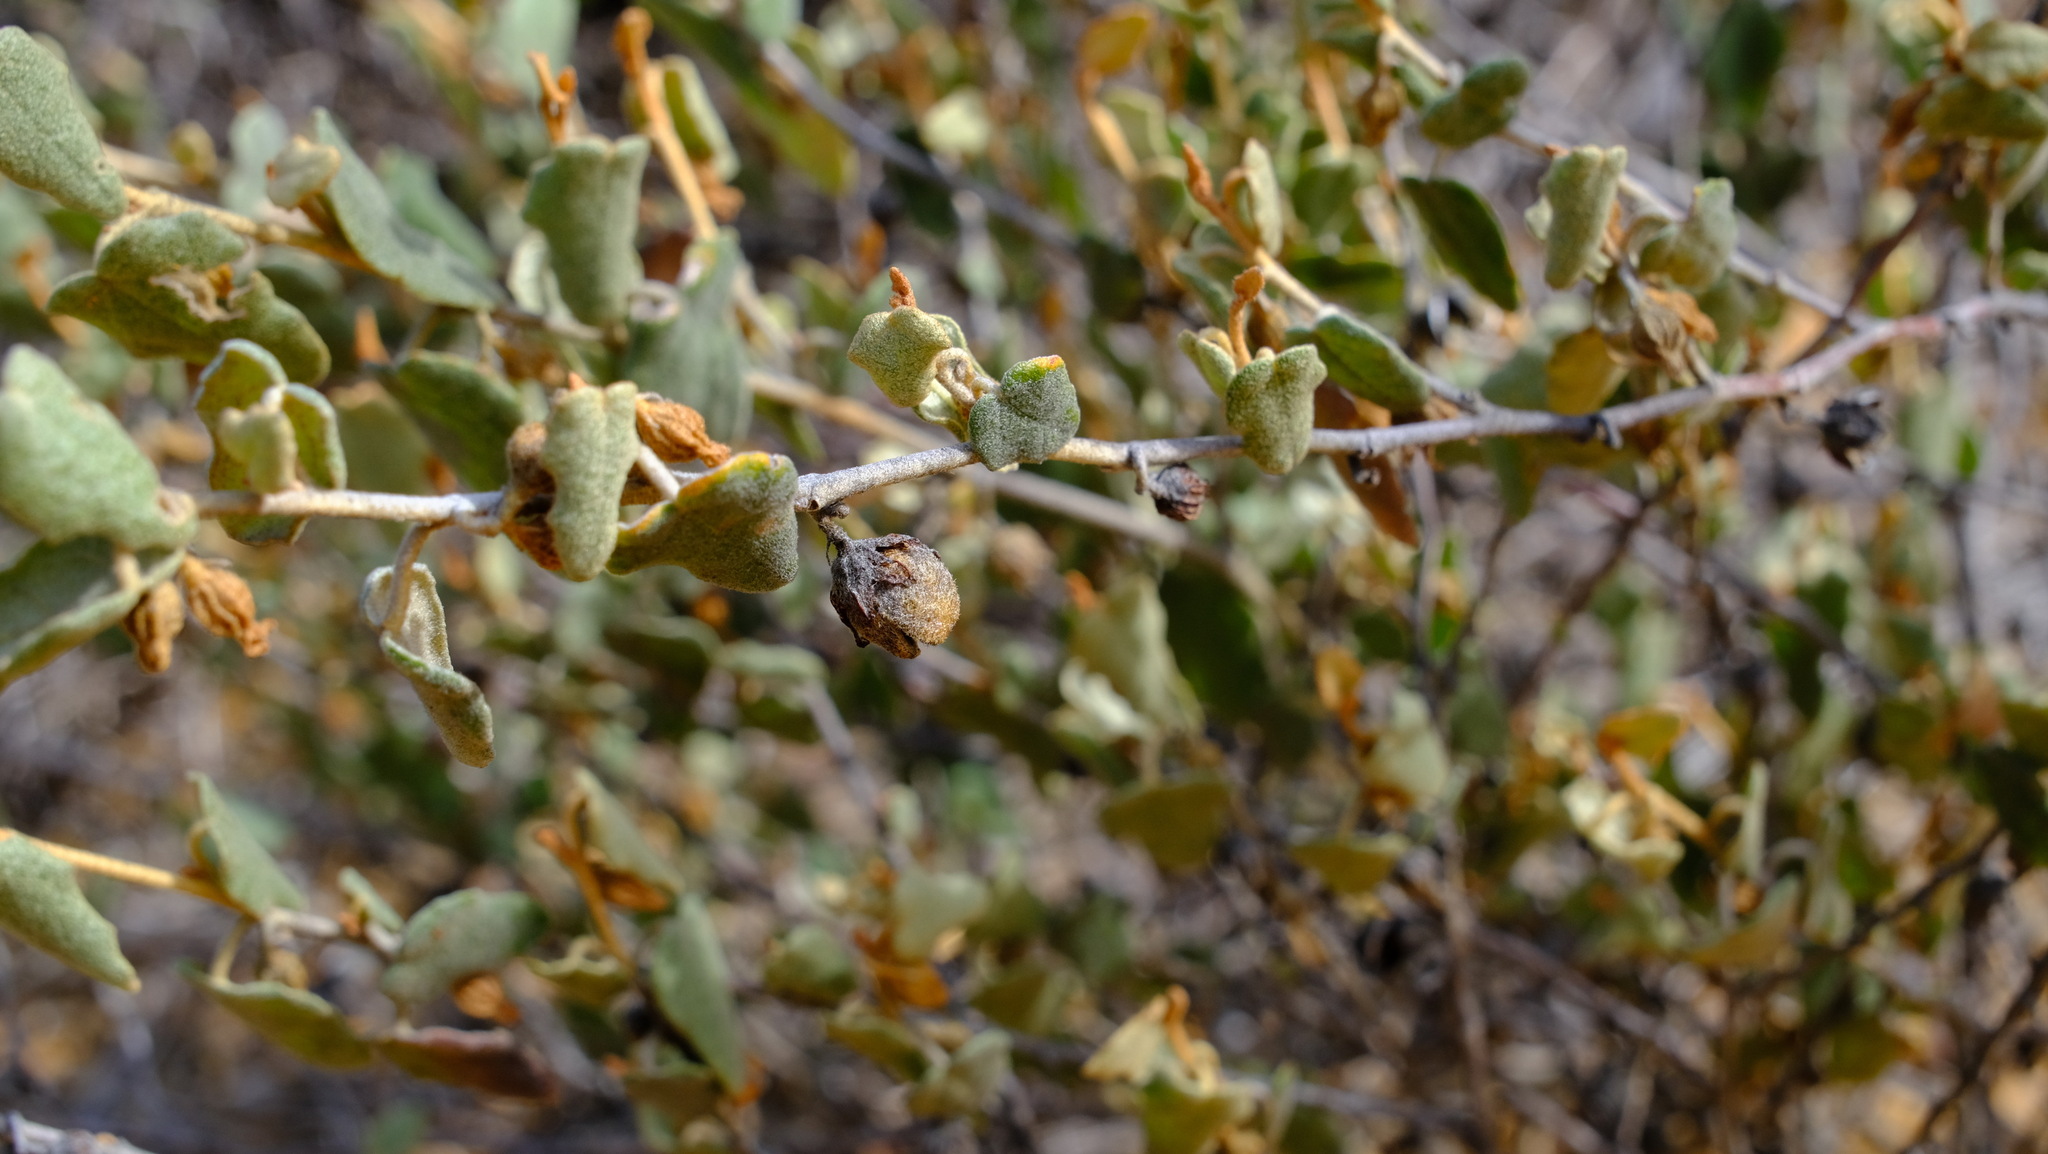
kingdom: Plantae
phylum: Tracheophyta
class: Magnoliopsida
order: Malvales
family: Malvaceae
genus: Hannafordia
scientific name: Hannafordia quadrivalvis
